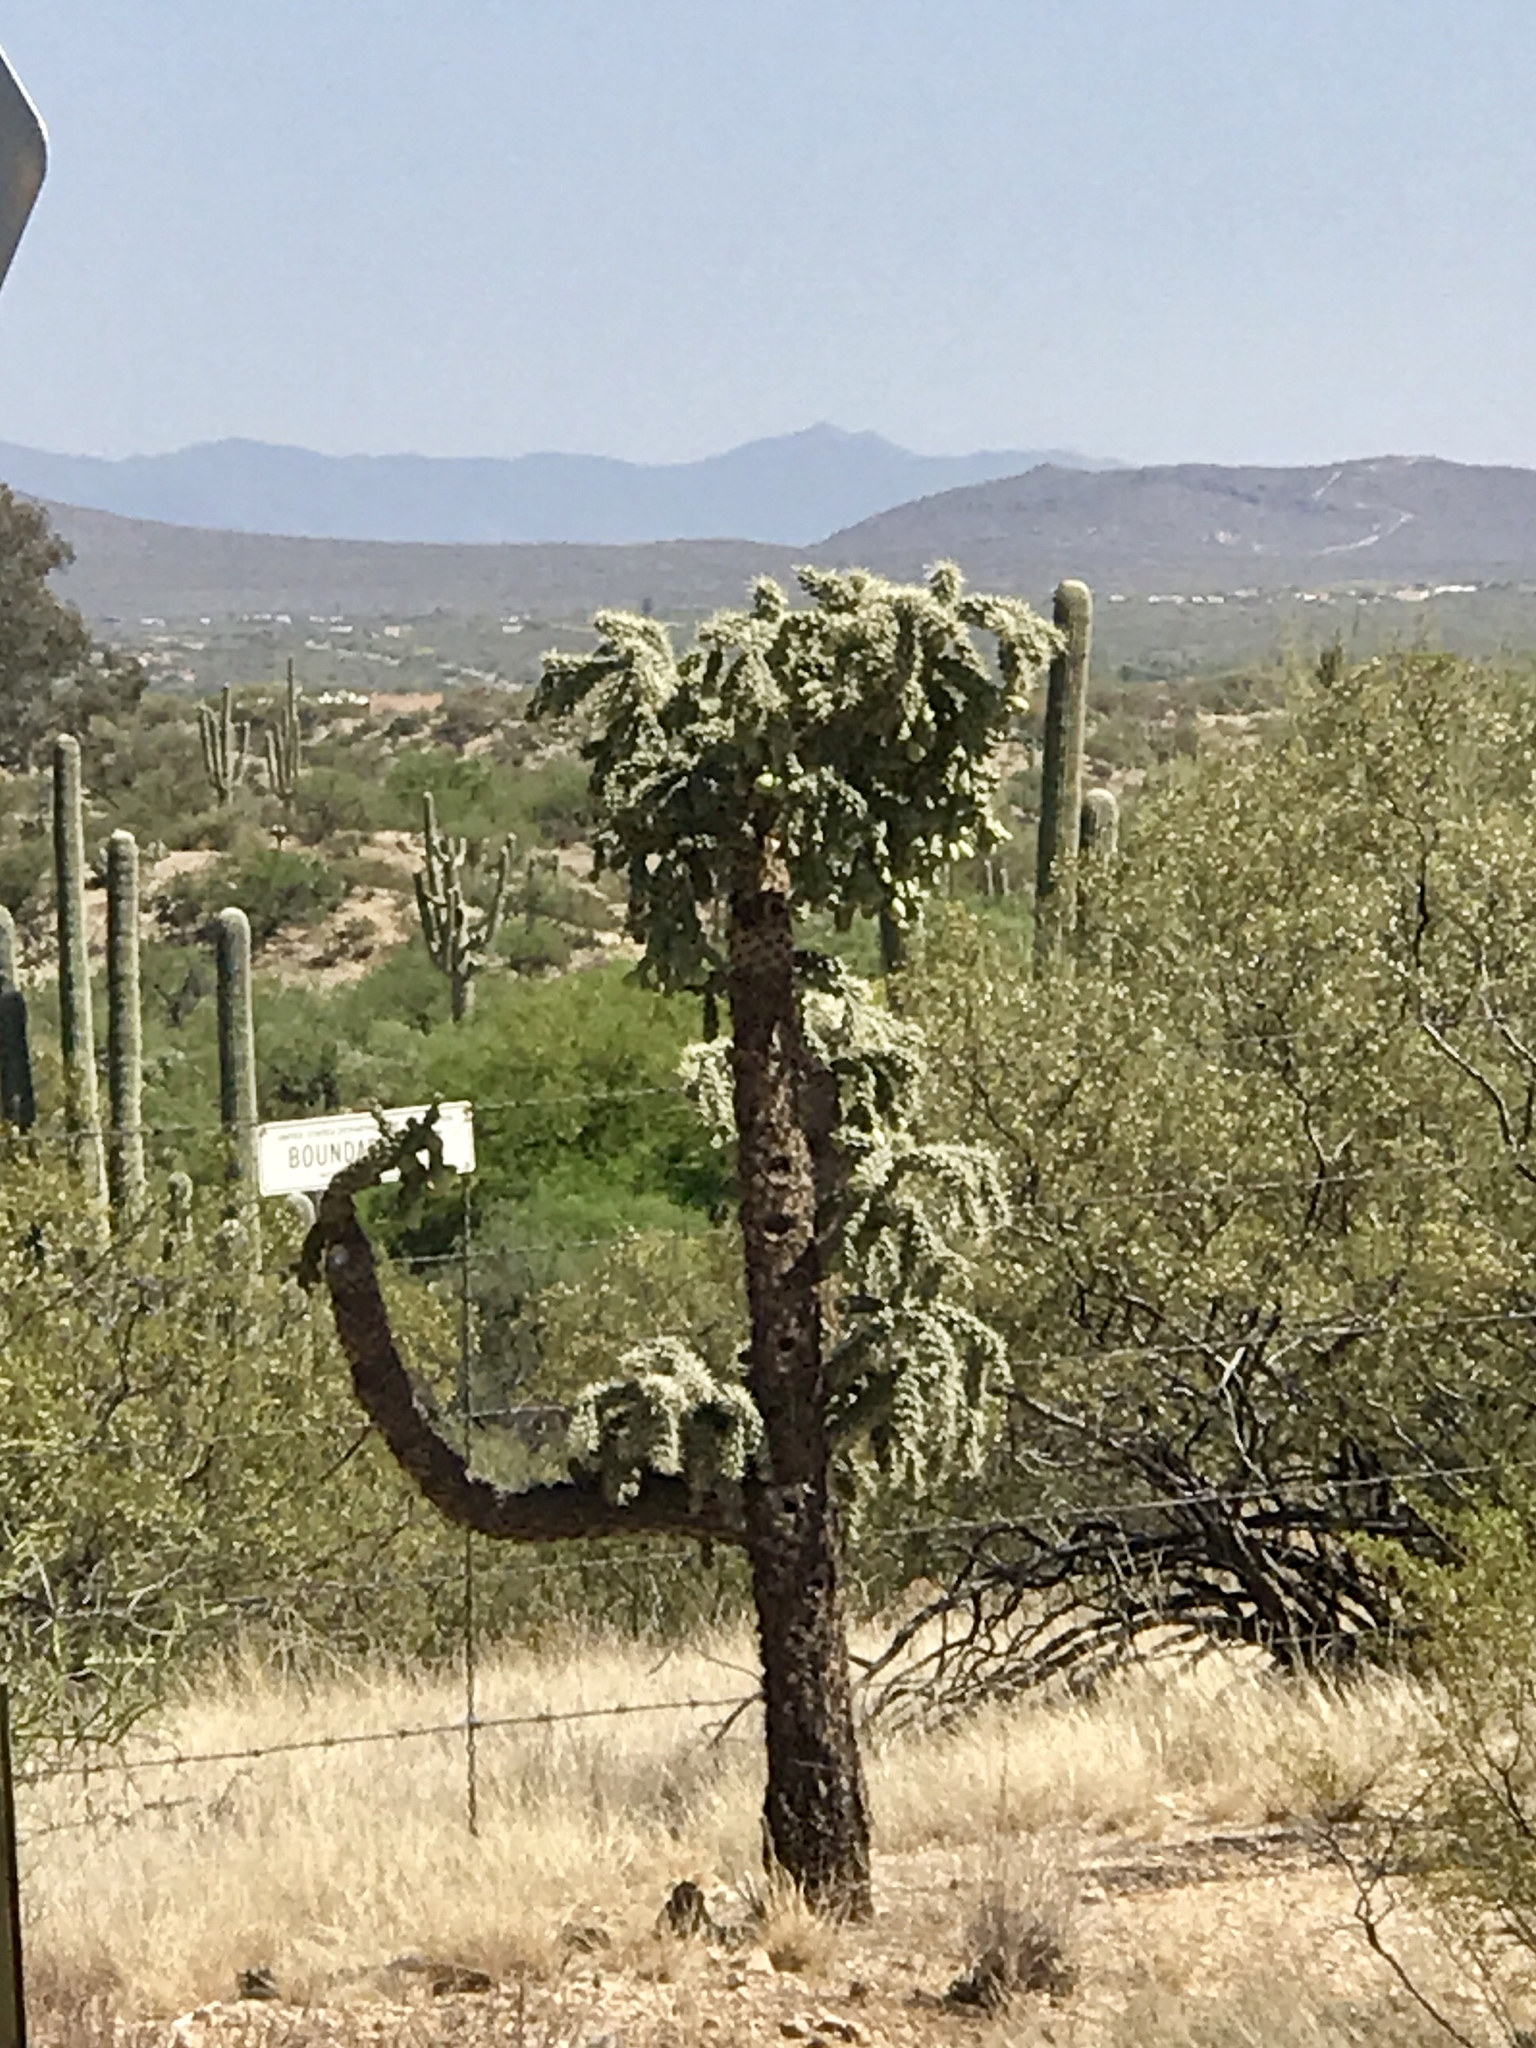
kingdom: Plantae
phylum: Tracheophyta
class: Magnoliopsida
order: Caryophyllales
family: Cactaceae
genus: Cylindropuntia
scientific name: Cylindropuntia fulgida
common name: Jumping cholla
